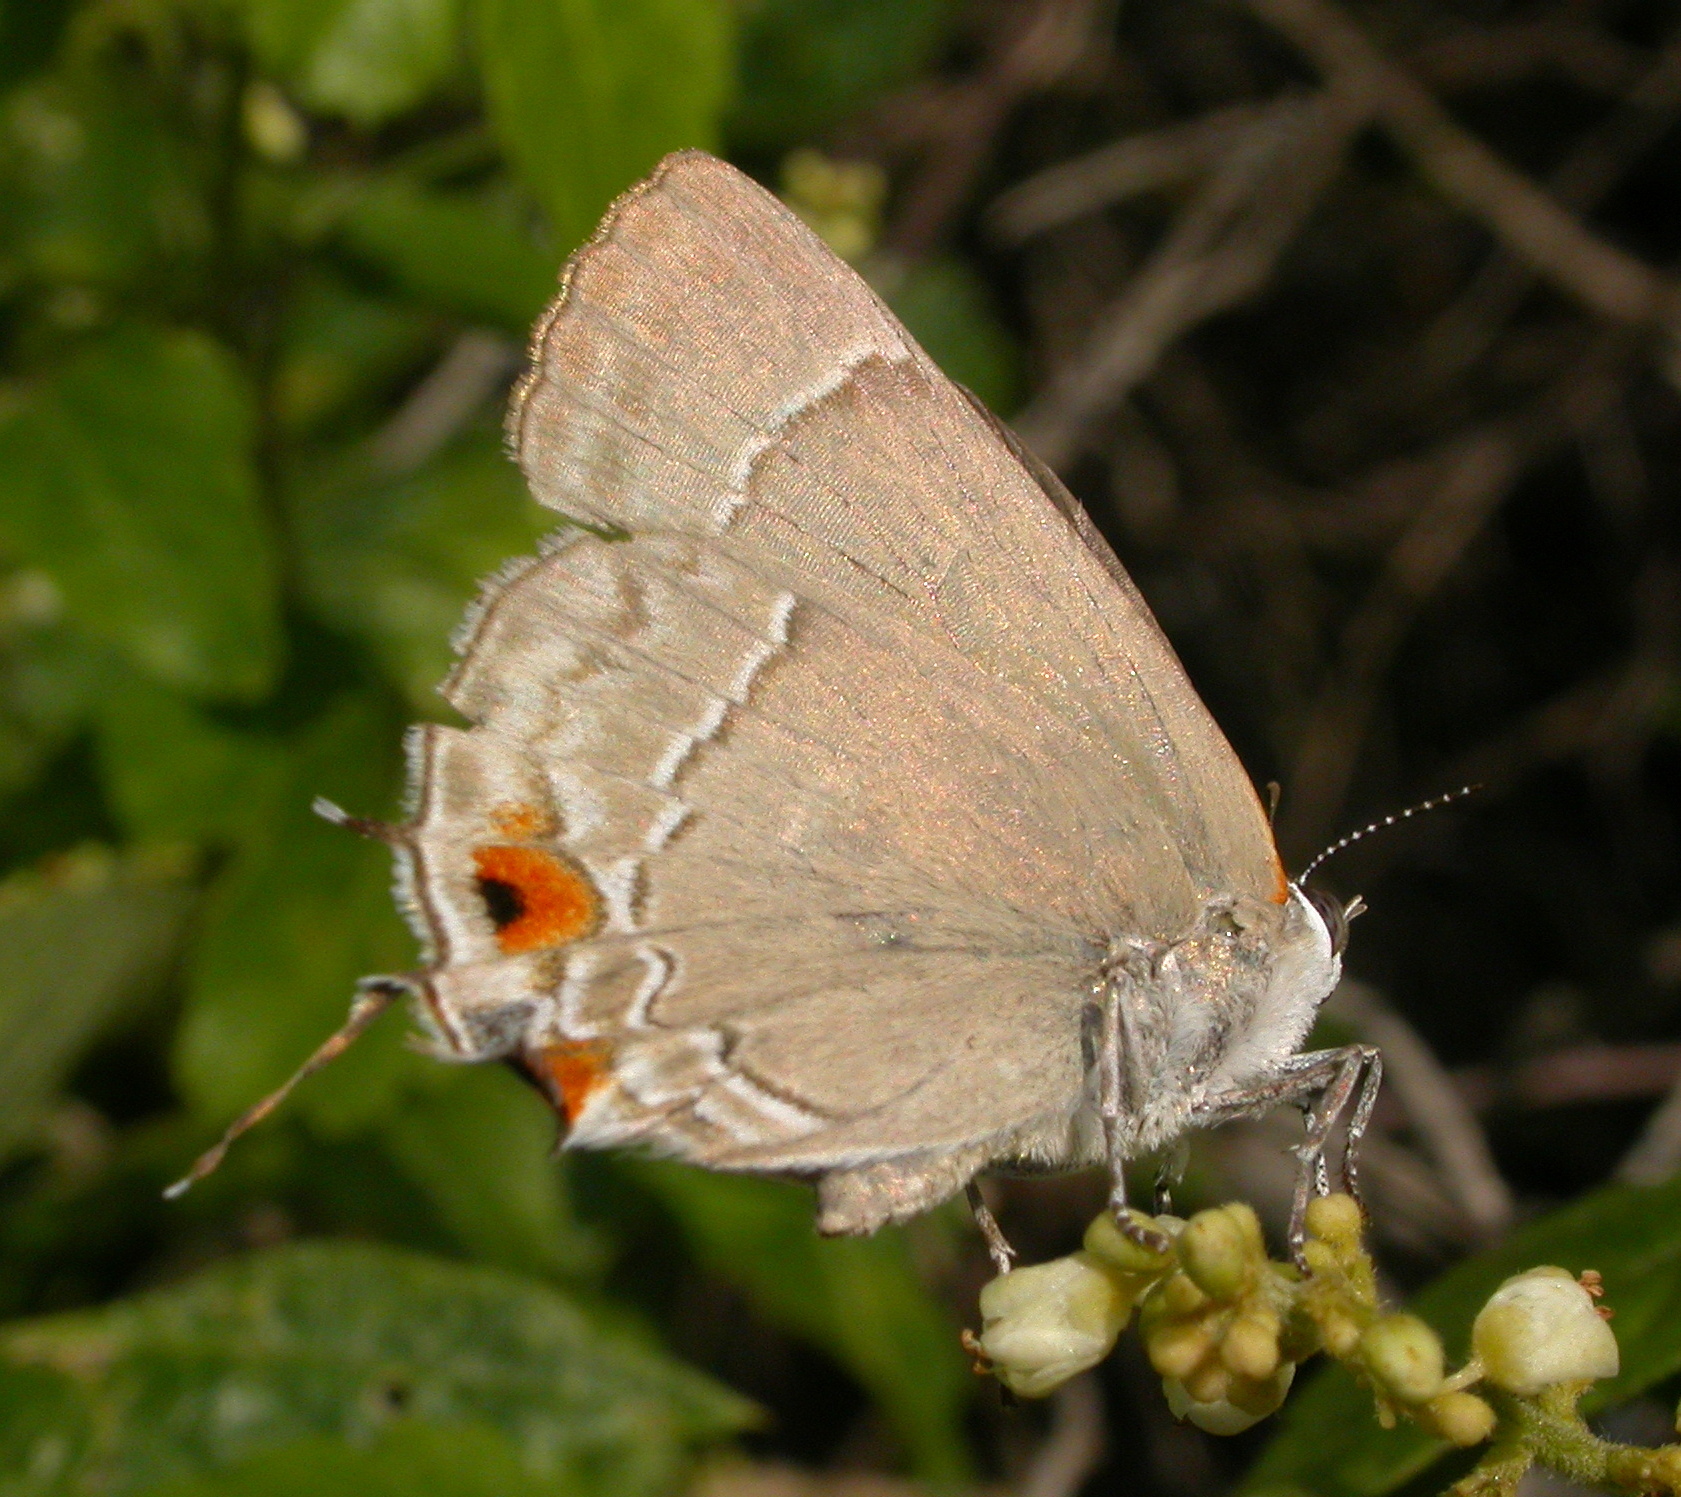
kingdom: Animalia
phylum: Arthropoda
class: Insecta
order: Lepidoptera
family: Lycaenidae
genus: Thecla
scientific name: Thecla marius
